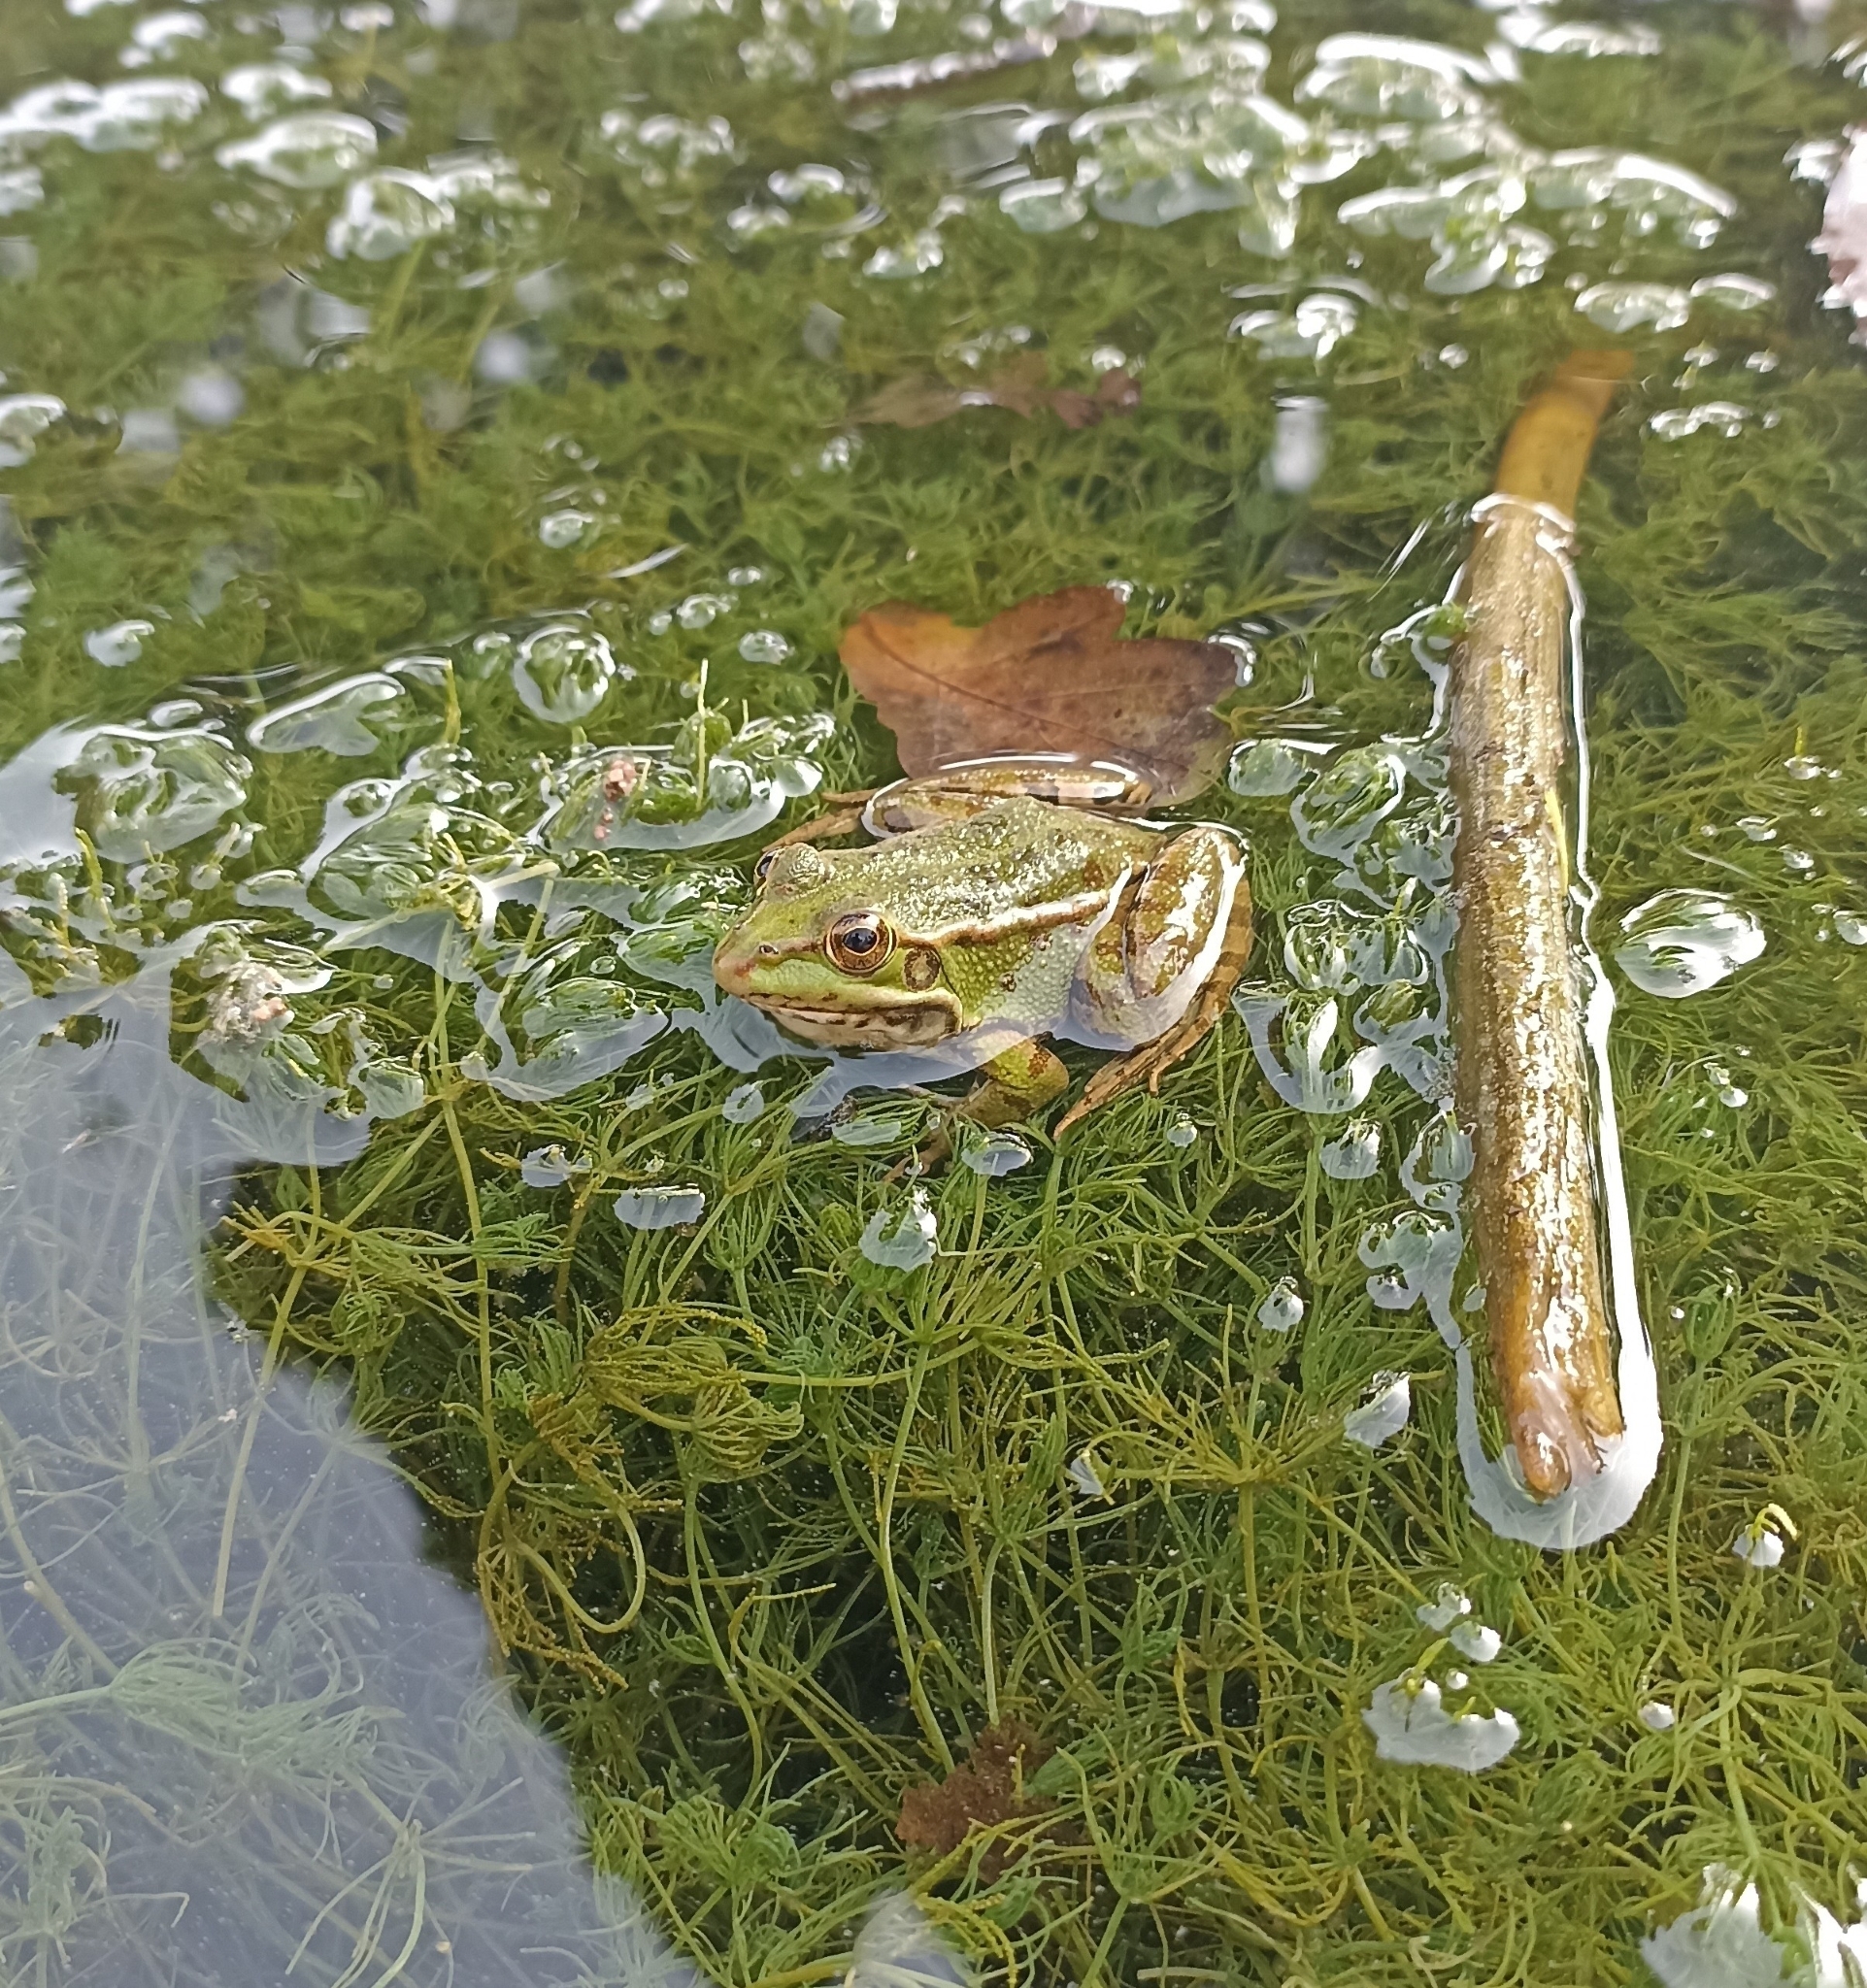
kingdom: Animalia
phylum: Chordata
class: Amphibia
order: Anura
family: Ranidae
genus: Pelophylax
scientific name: Pelophylax perezi
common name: Perez's frog
